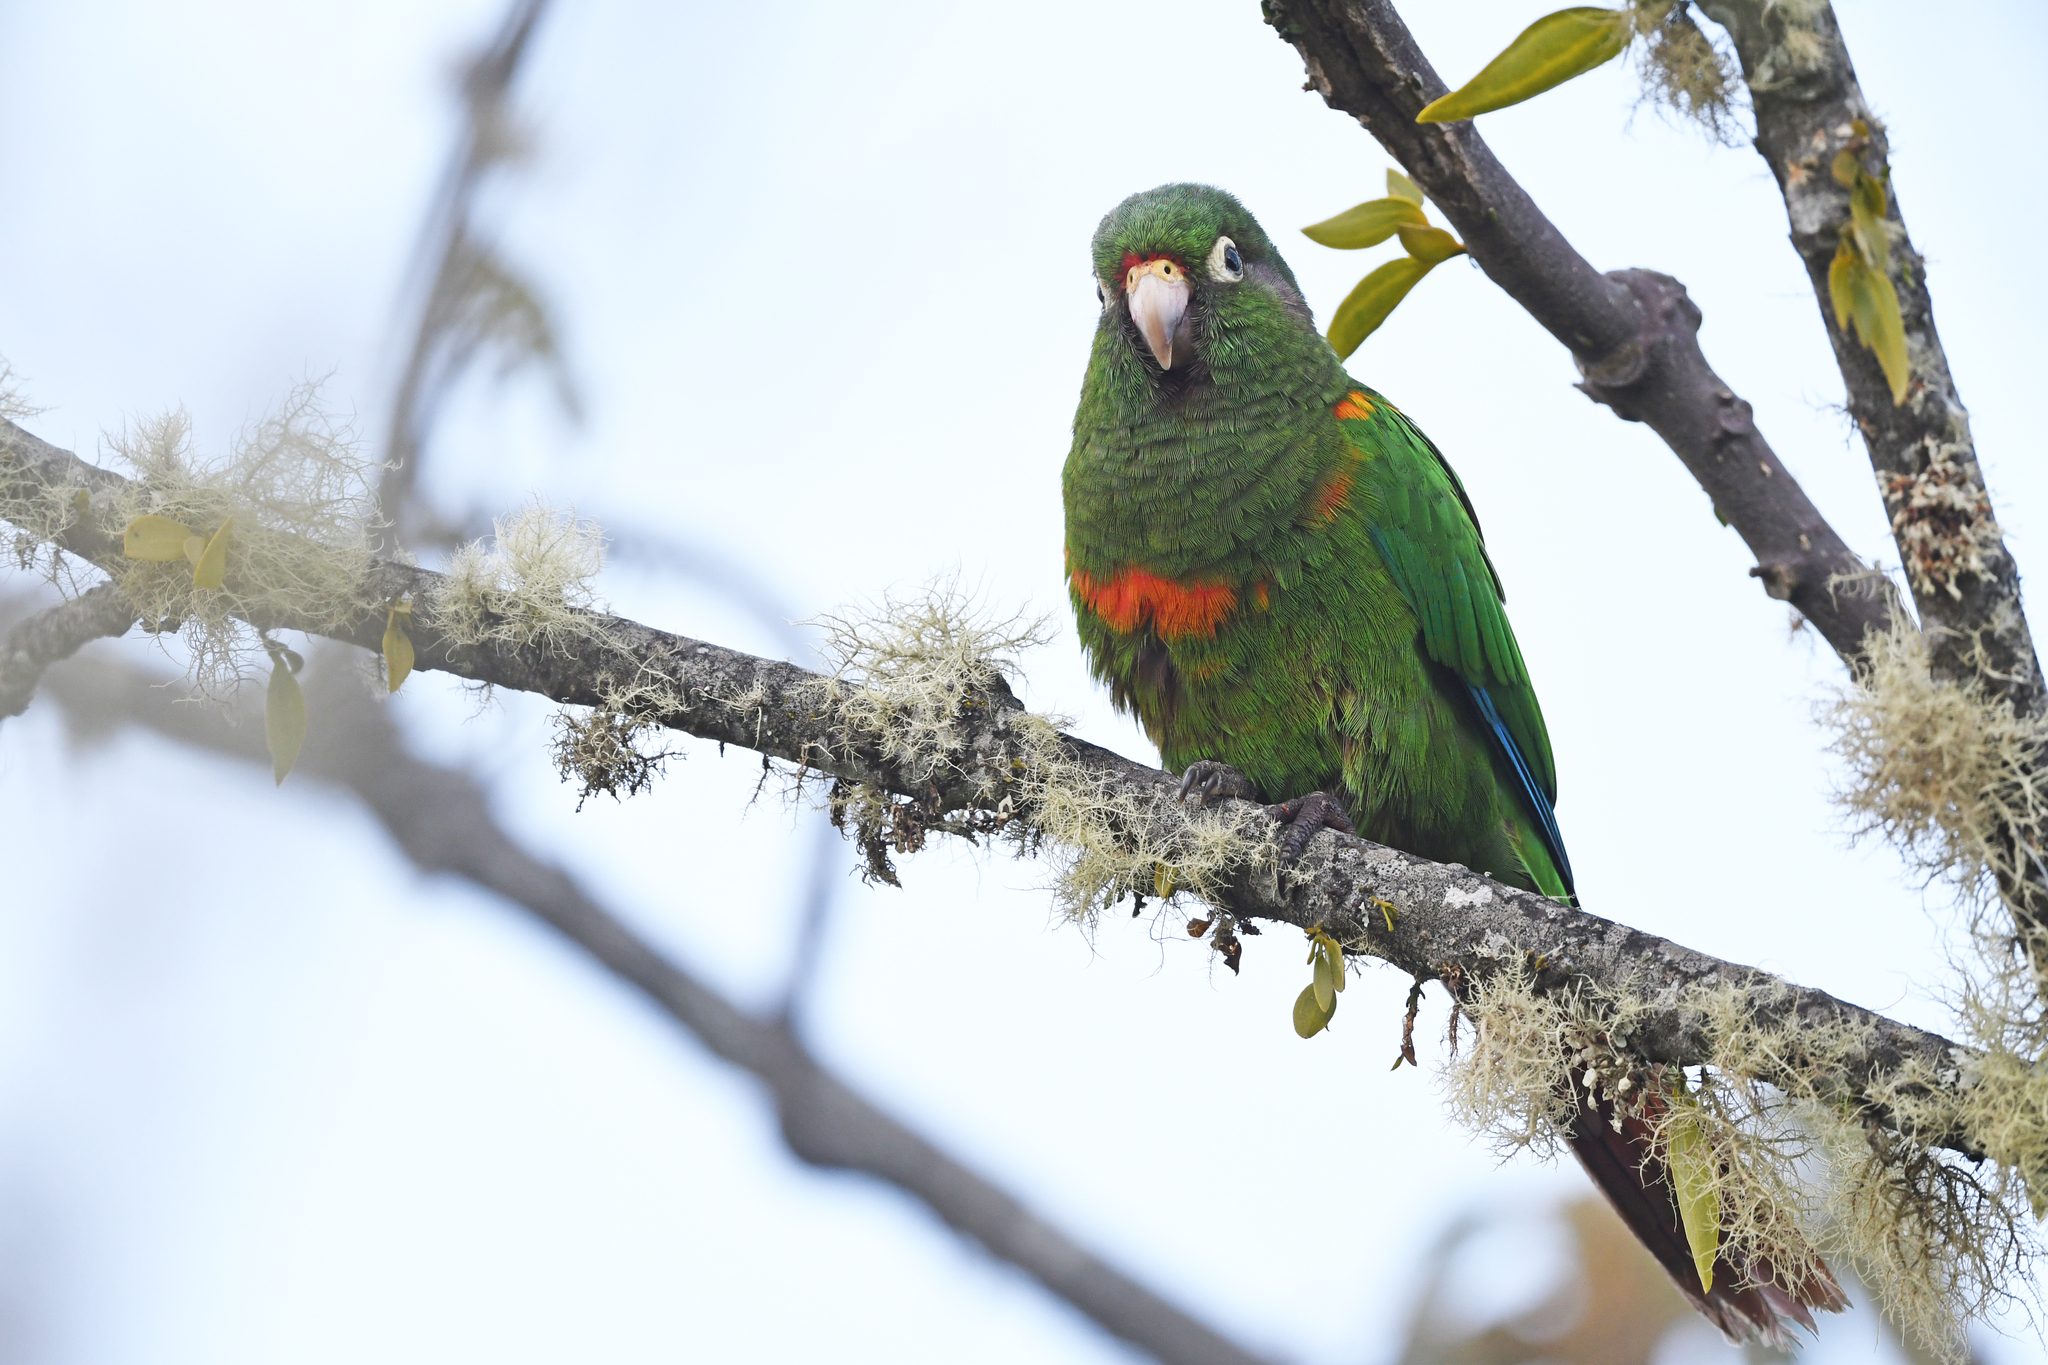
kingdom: Animalia
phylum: Chordata
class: Aves
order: Psittaciformes
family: Psittacidae
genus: Pyrrhura
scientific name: Pyrrhura viridicata
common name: Santa marta parakeet
